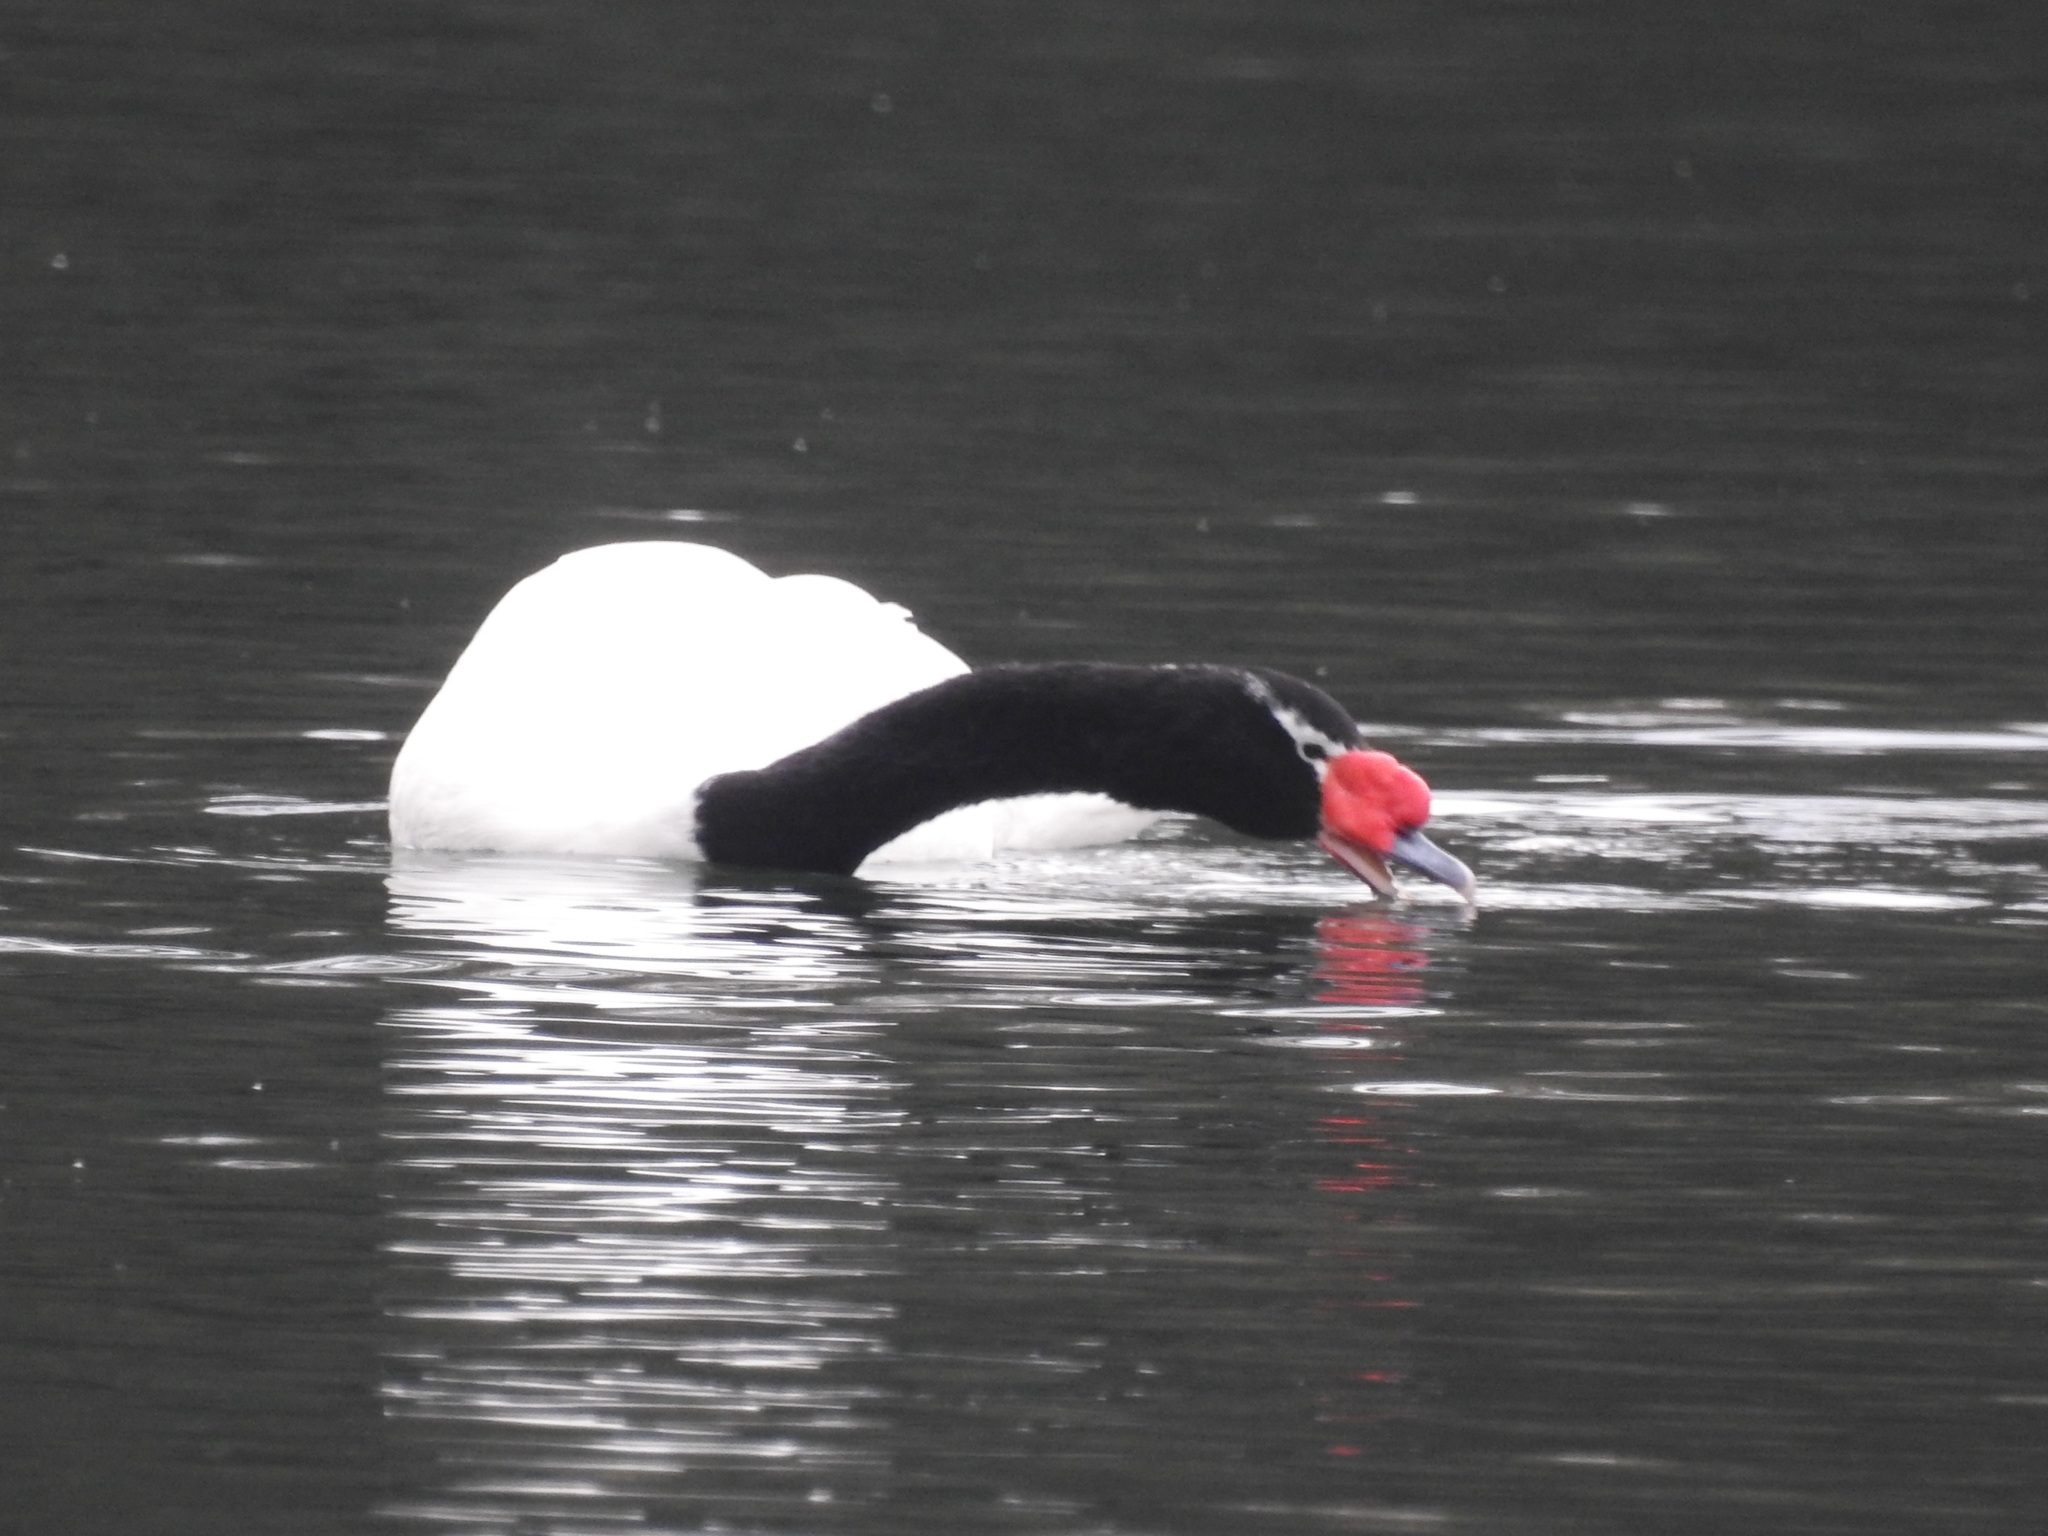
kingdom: Animalia
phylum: Chordata
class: Aves
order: Anseriformes
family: Anatidae
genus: Cygnus
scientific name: Cygnus melancoryphus
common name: Black-necked swan
